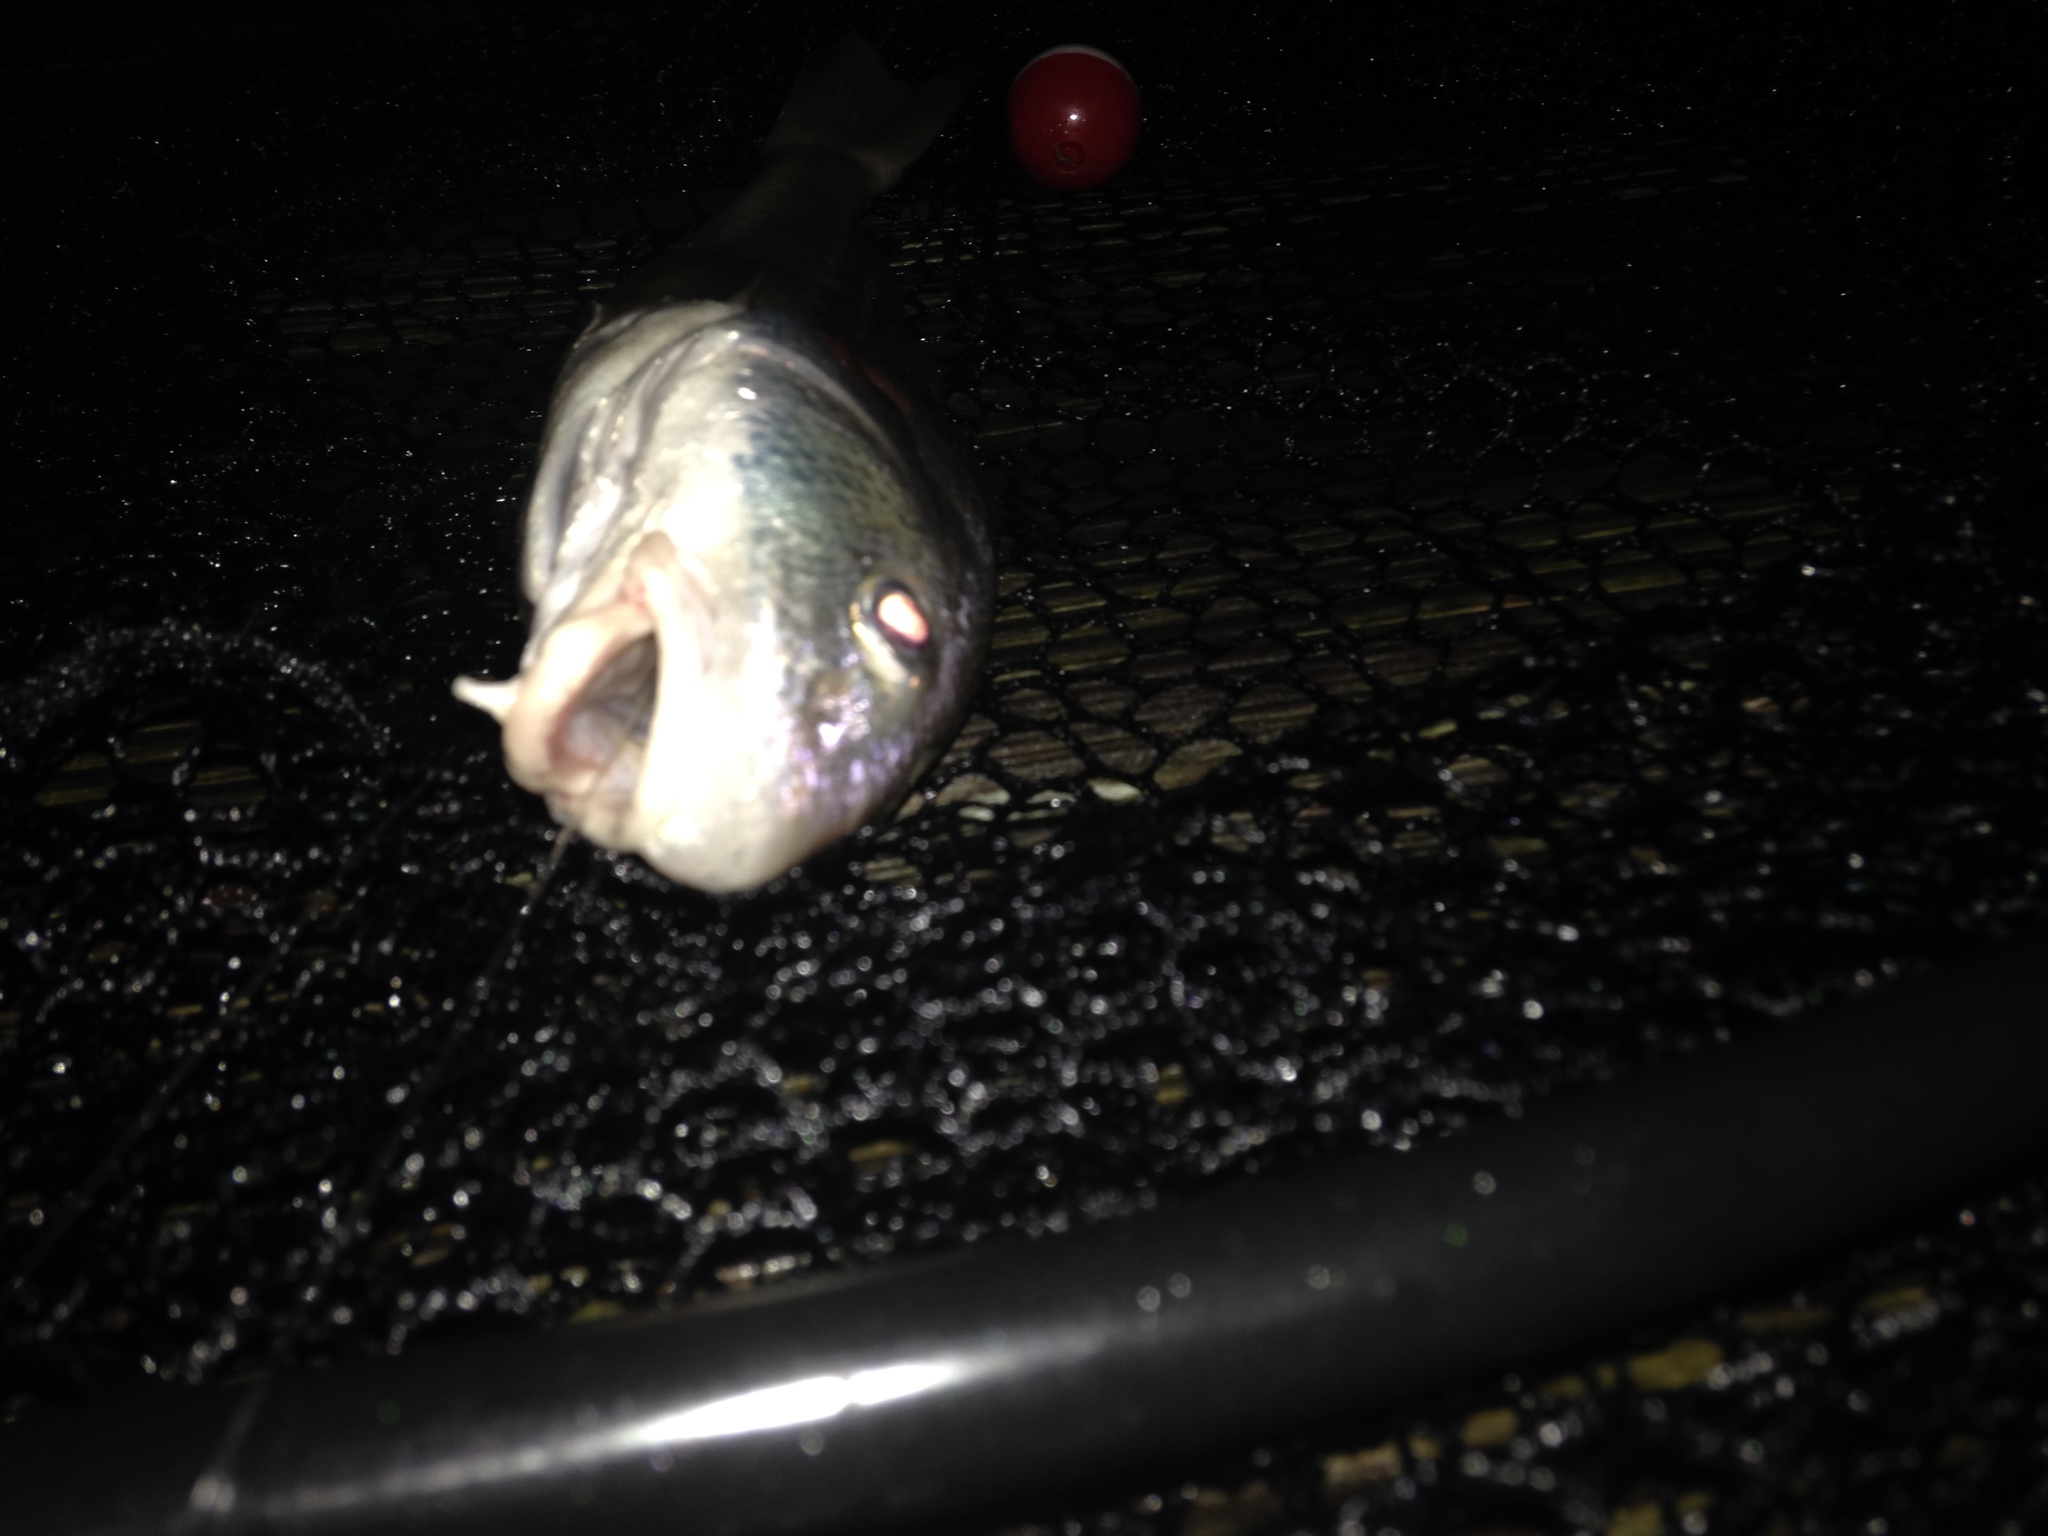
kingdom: Animalia
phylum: Chordata
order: Perciformes
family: Sciaenidae
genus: Menticirrhus
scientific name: Menticirrhus americanus
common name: Southern kingfish
